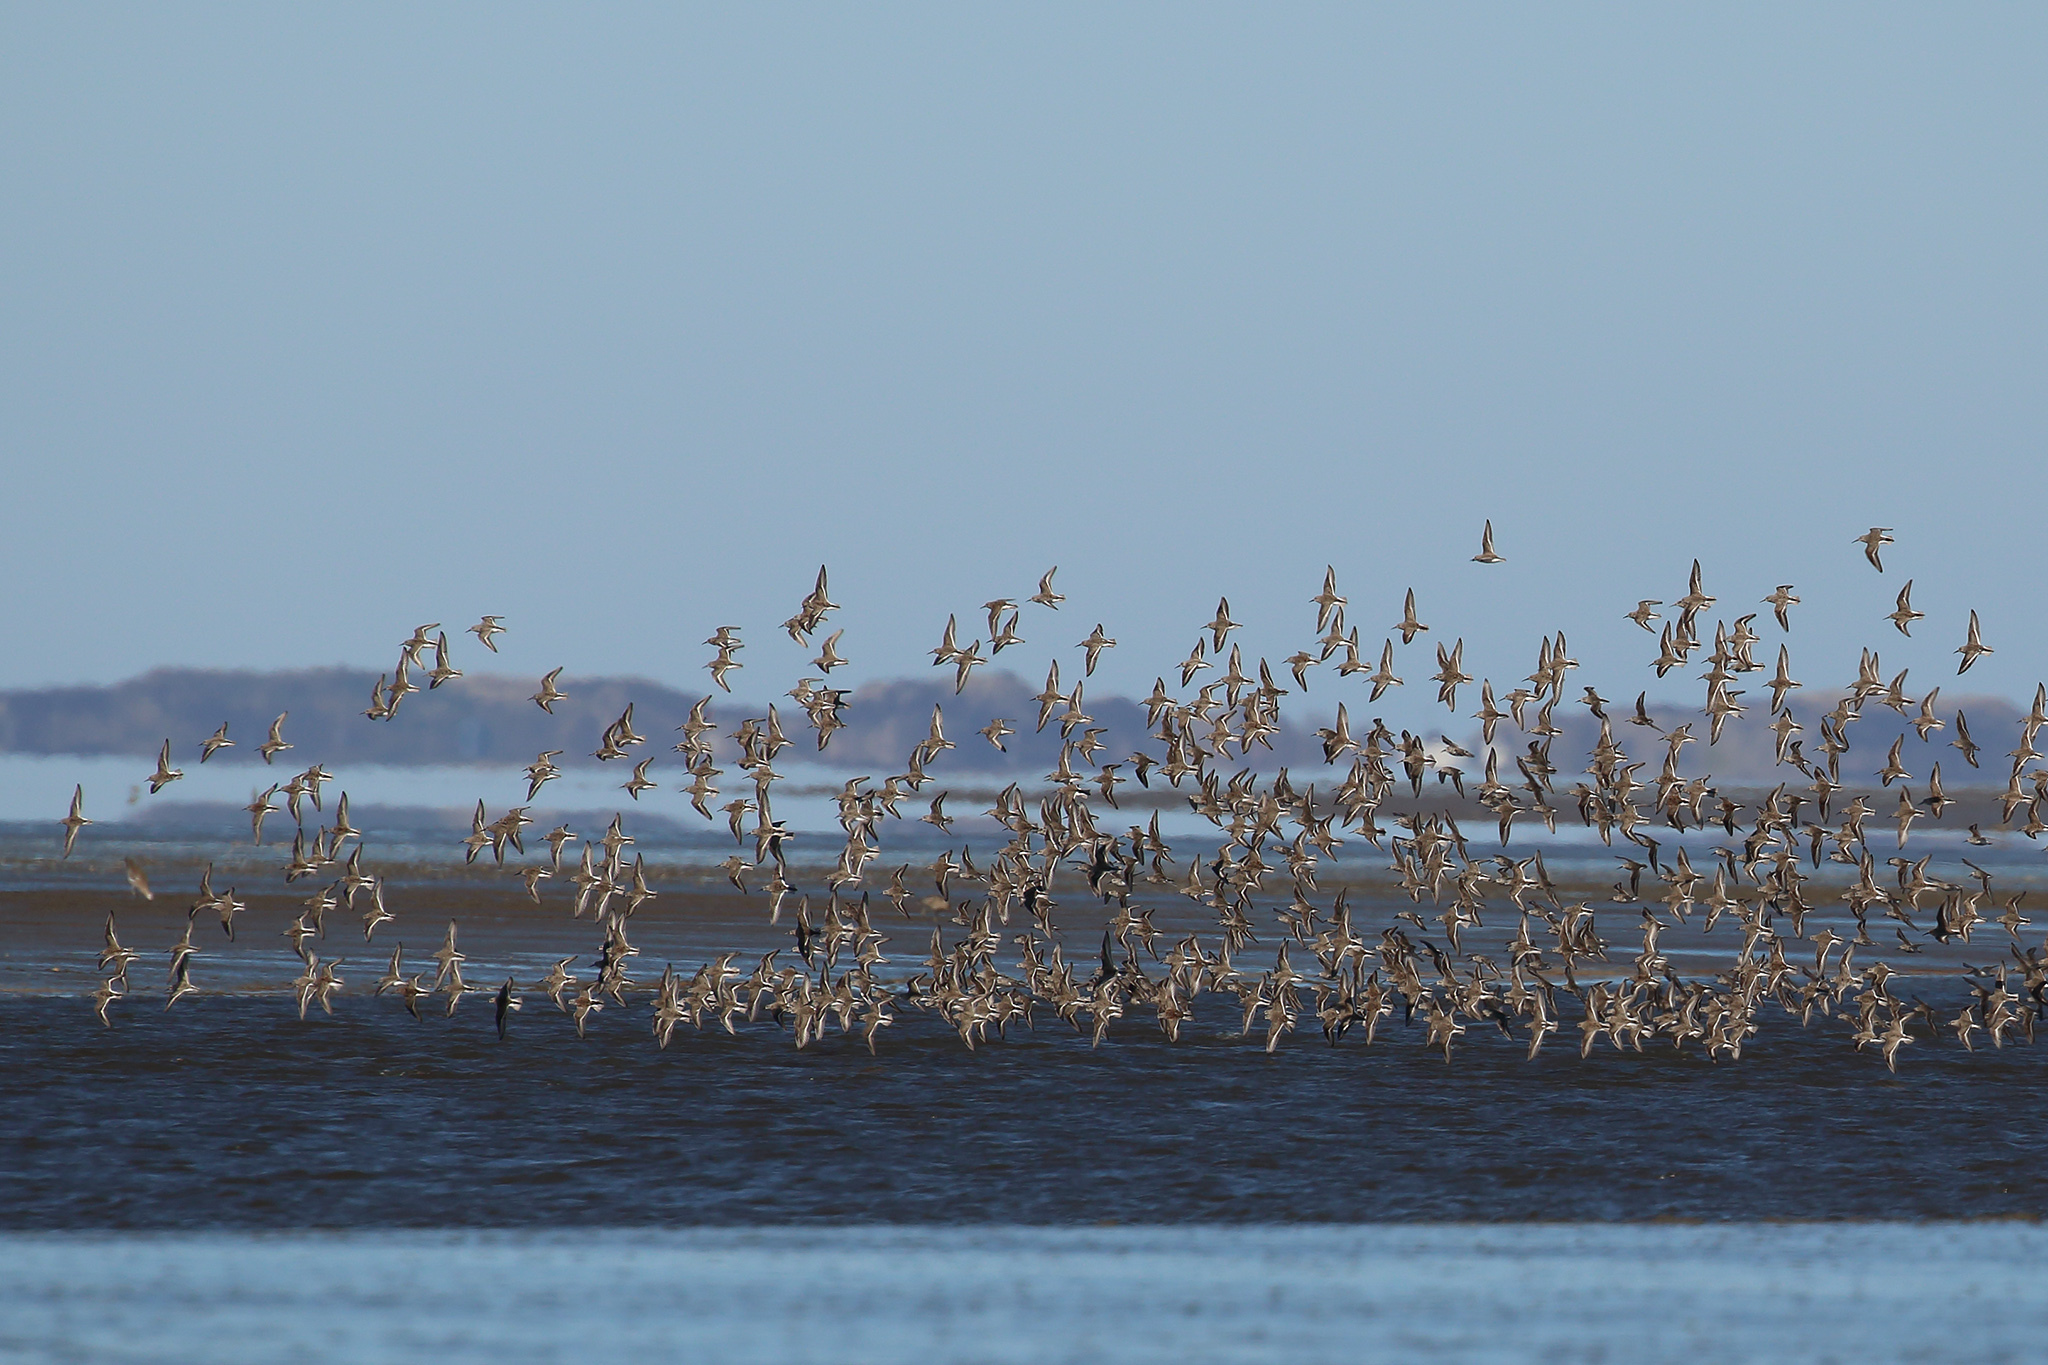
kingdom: Animalia
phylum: Chordata
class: Aves
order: Charadriiformes
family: Scolopacidae
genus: Calidris
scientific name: Calidris alpina
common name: Dunlin
